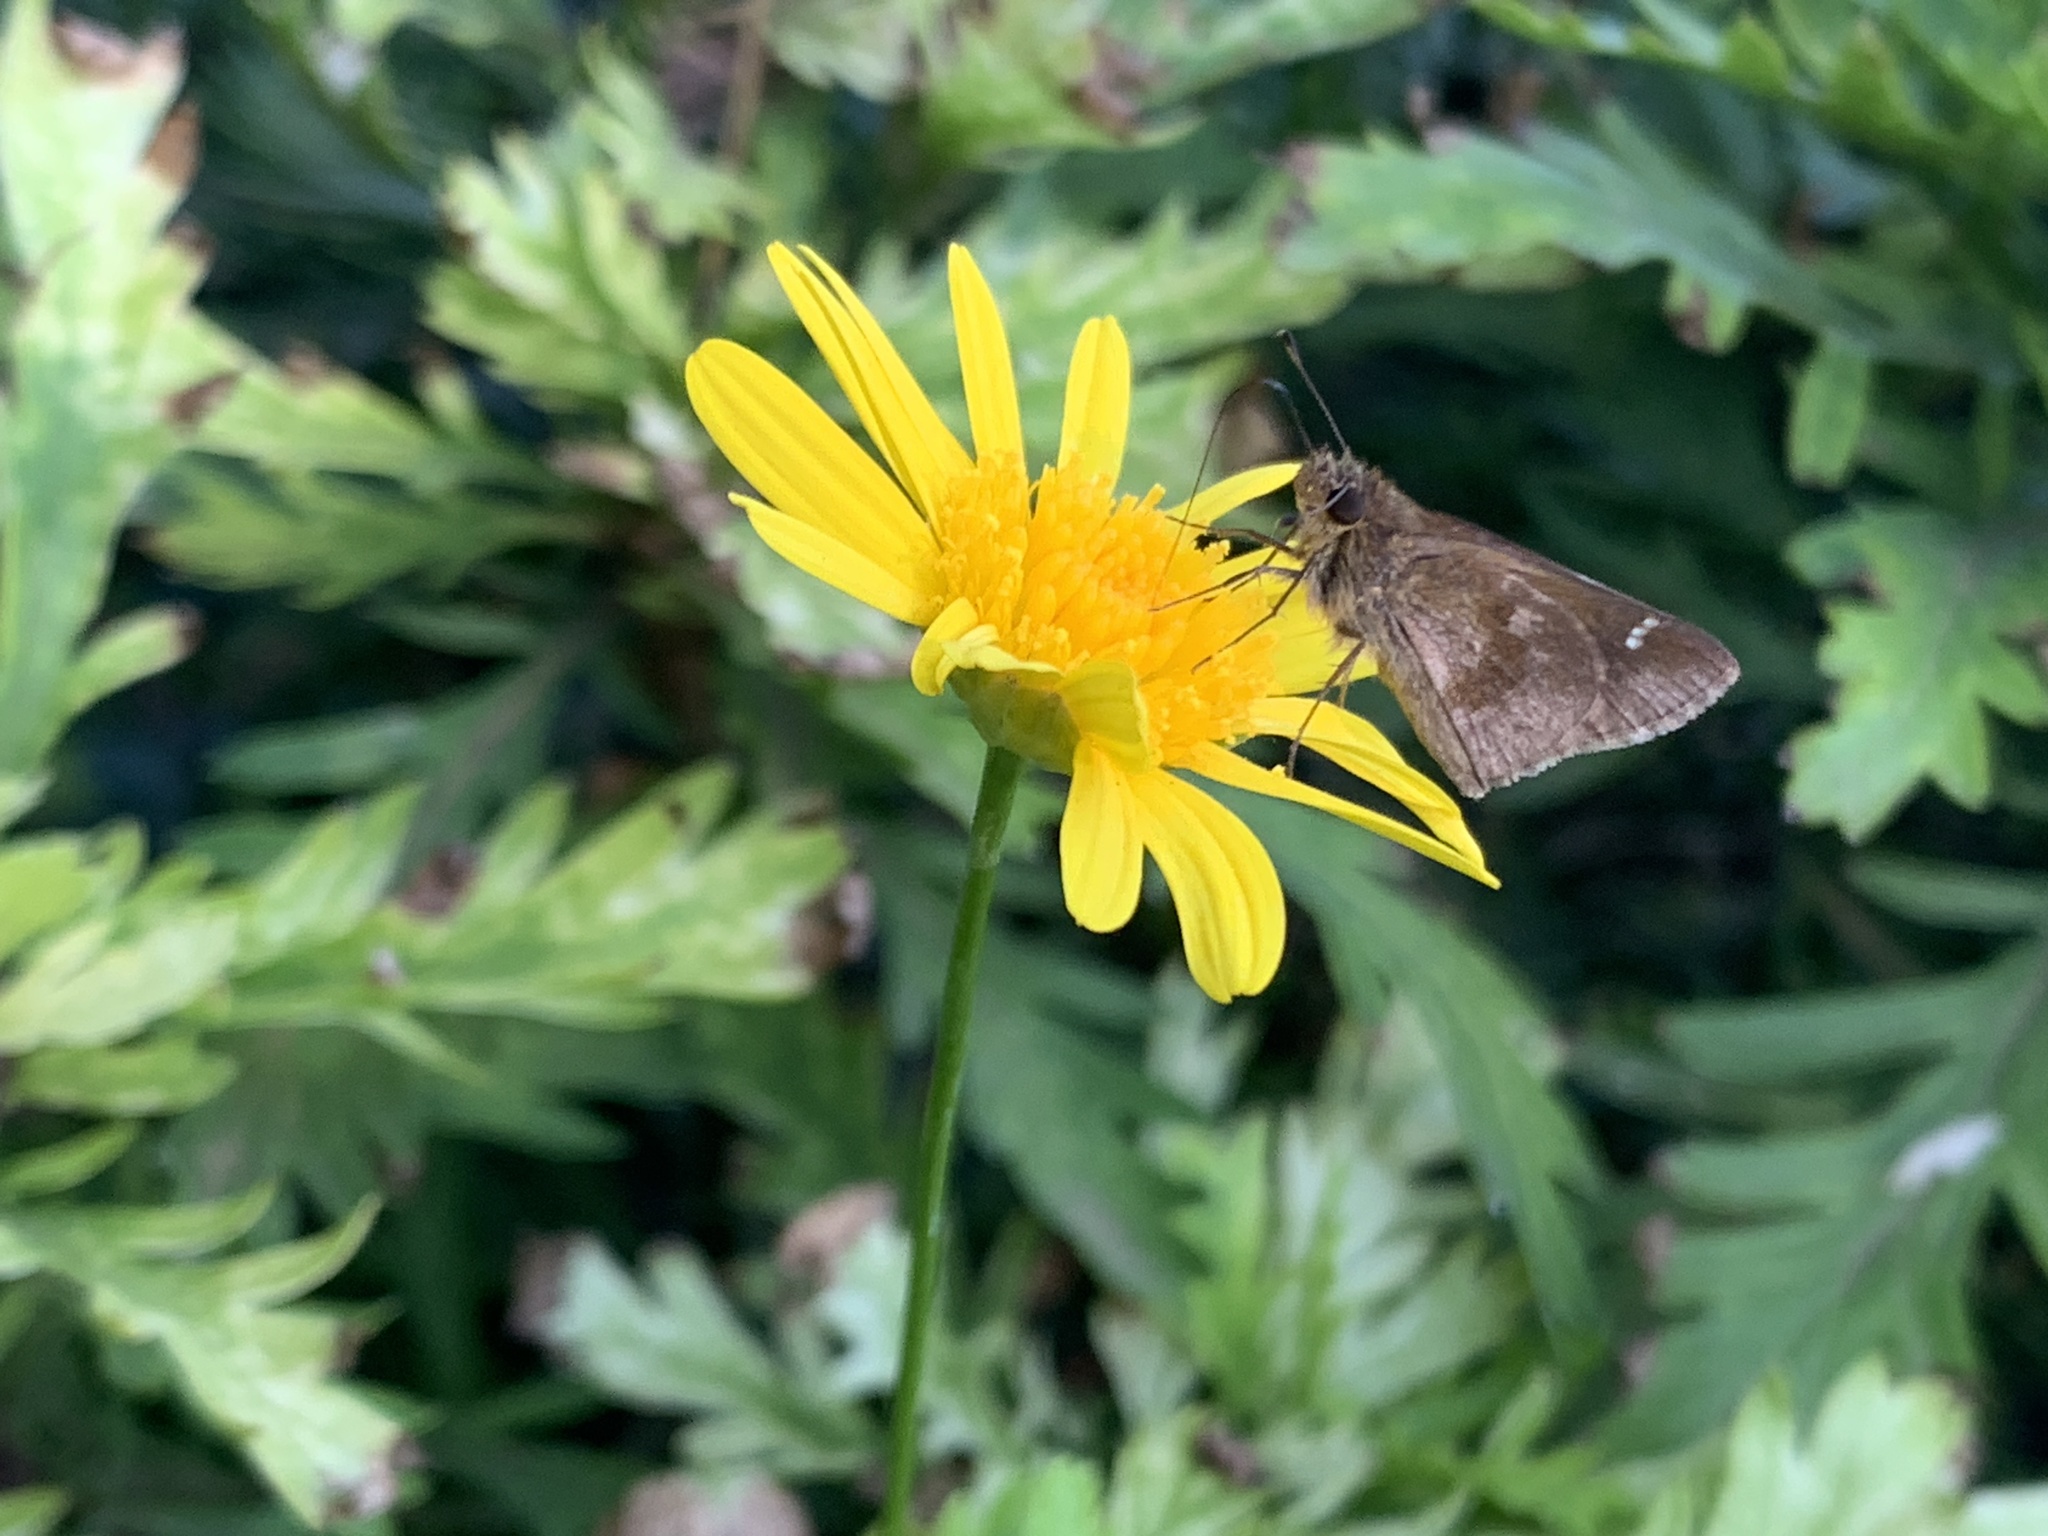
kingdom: Animalia
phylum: Arthropoda
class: Insecta
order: Lepidoptera
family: Hesperiidae
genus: Cymaenes
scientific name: Cymaenes
